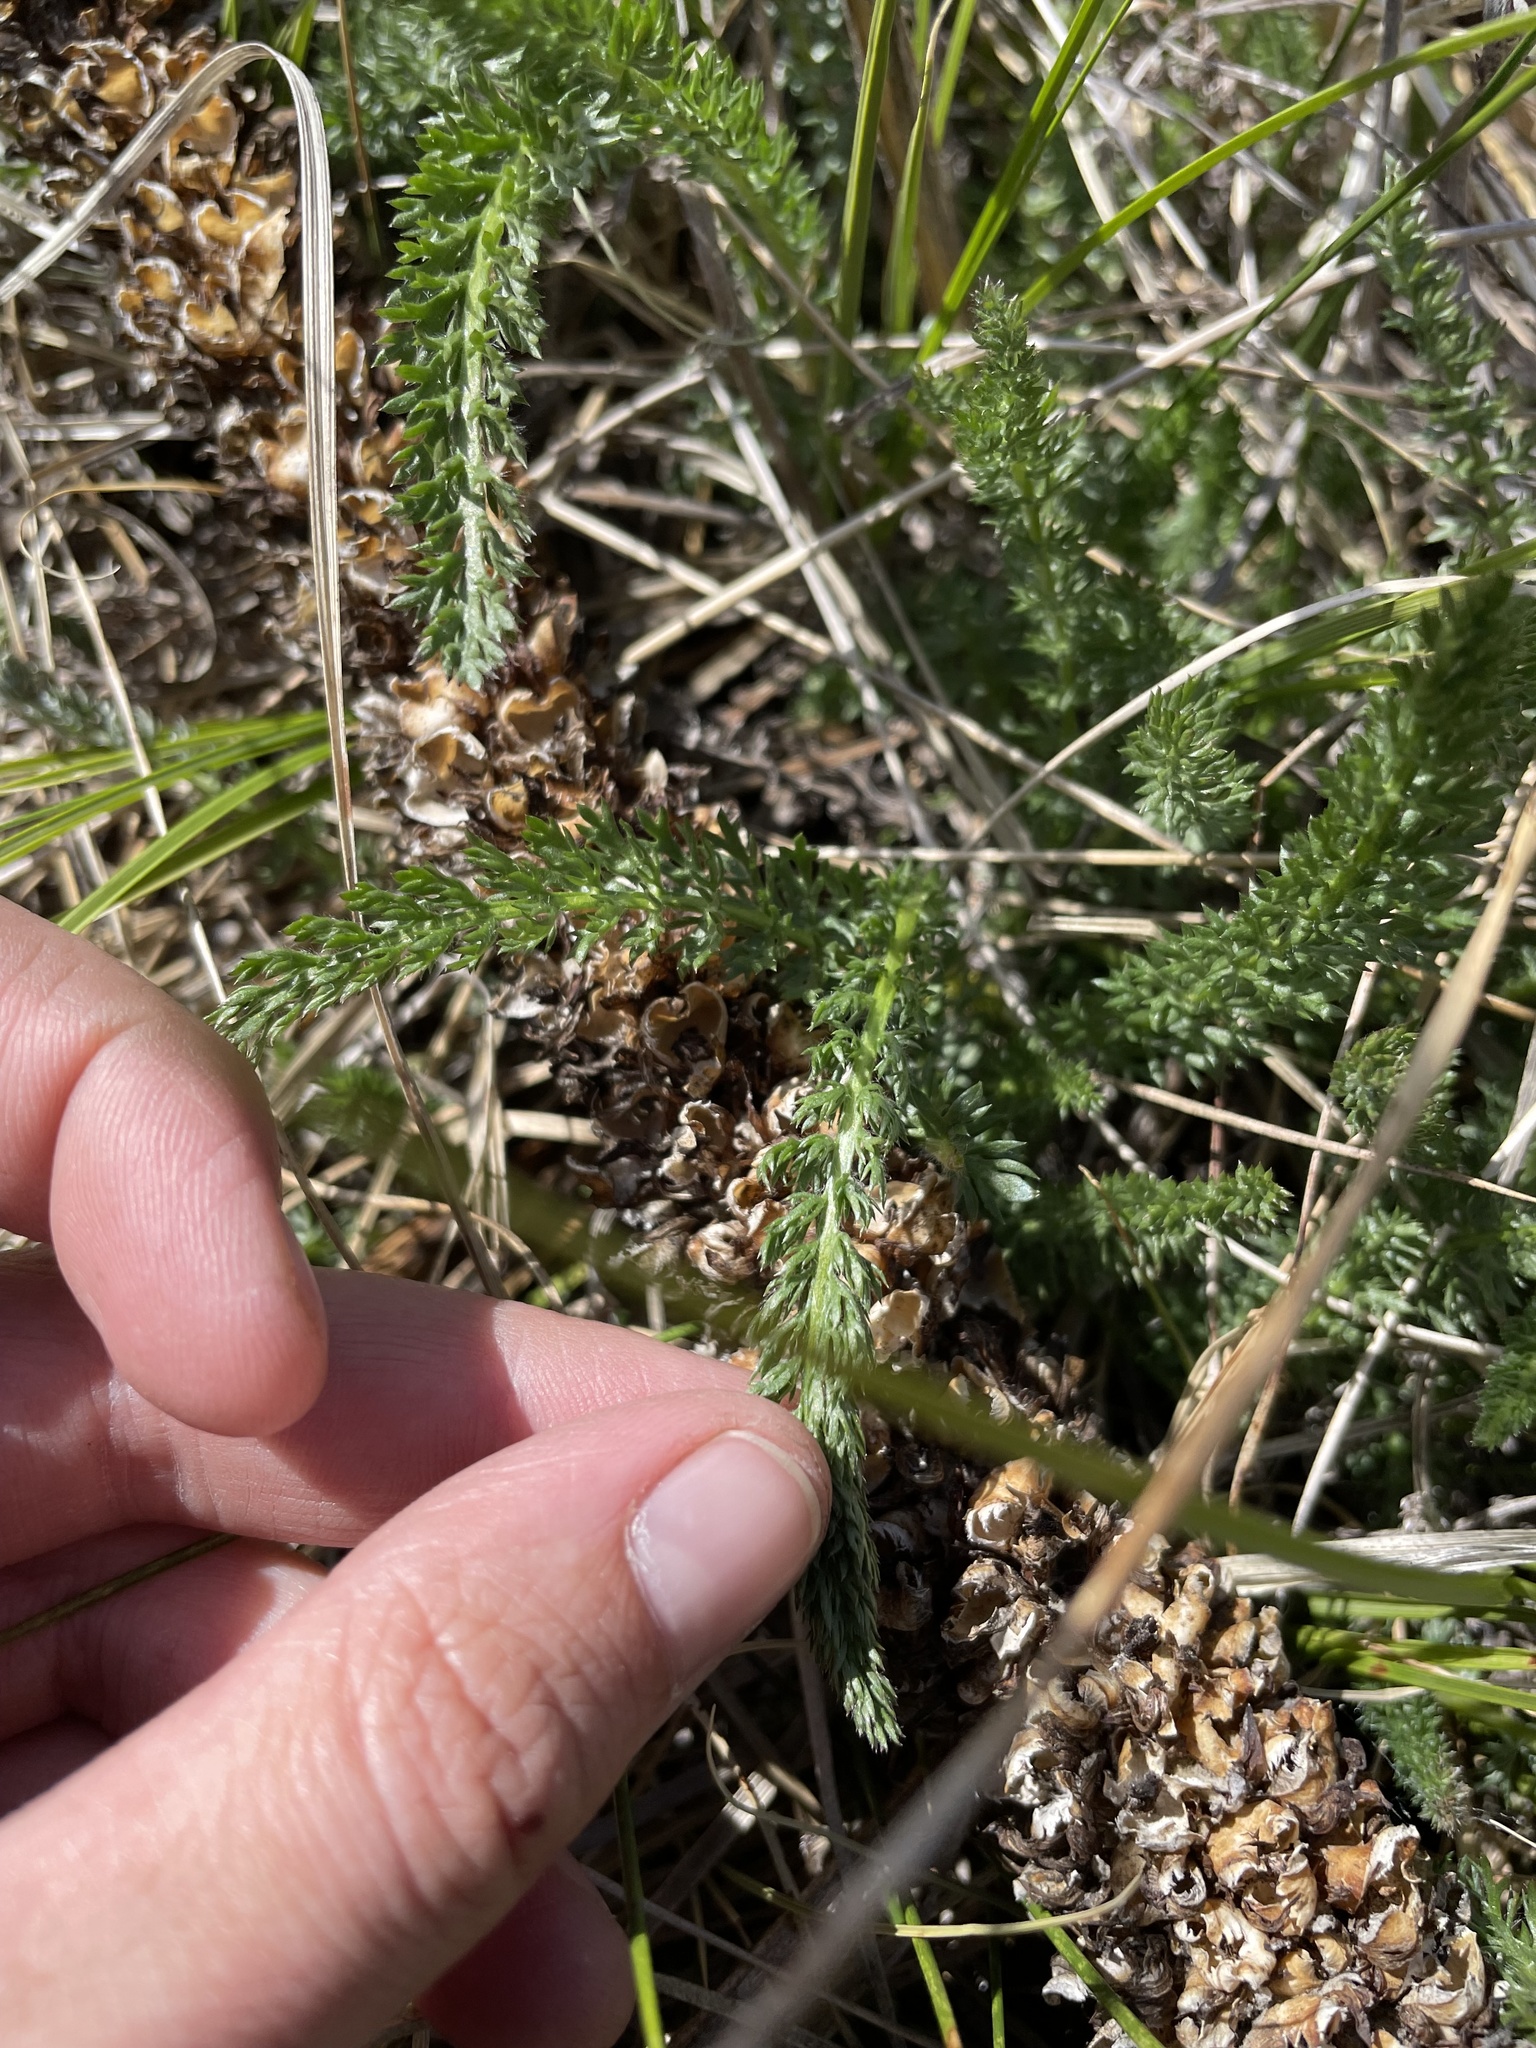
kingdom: Plantae
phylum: Tracheophyta
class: Magnoliopsida
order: Asterales
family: Asteraceae
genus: Achillea
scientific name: Achillea millefolium
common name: Yarrow
